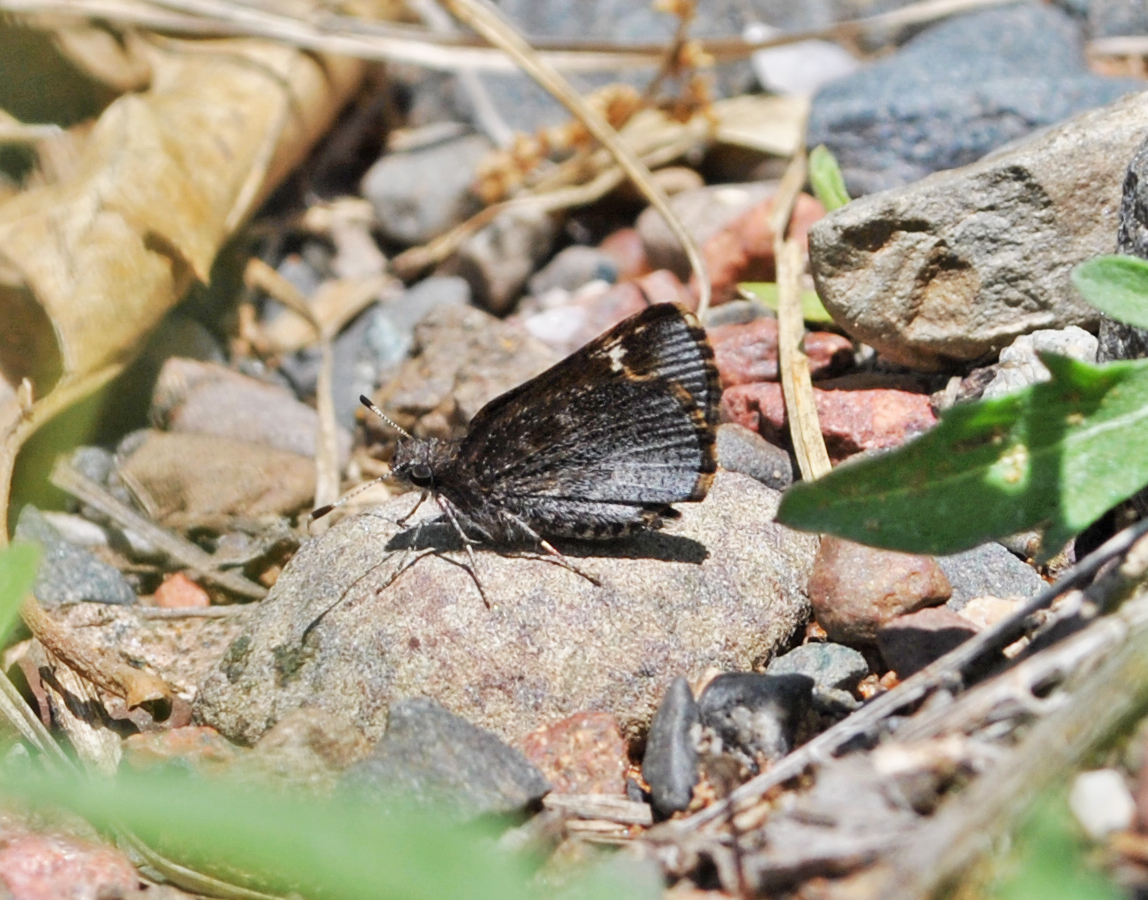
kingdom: Animalia
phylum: Arthropoda
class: Insecta
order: Lepidoptera
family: Hesperiidae
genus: Mastor
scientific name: Mastor vialis
